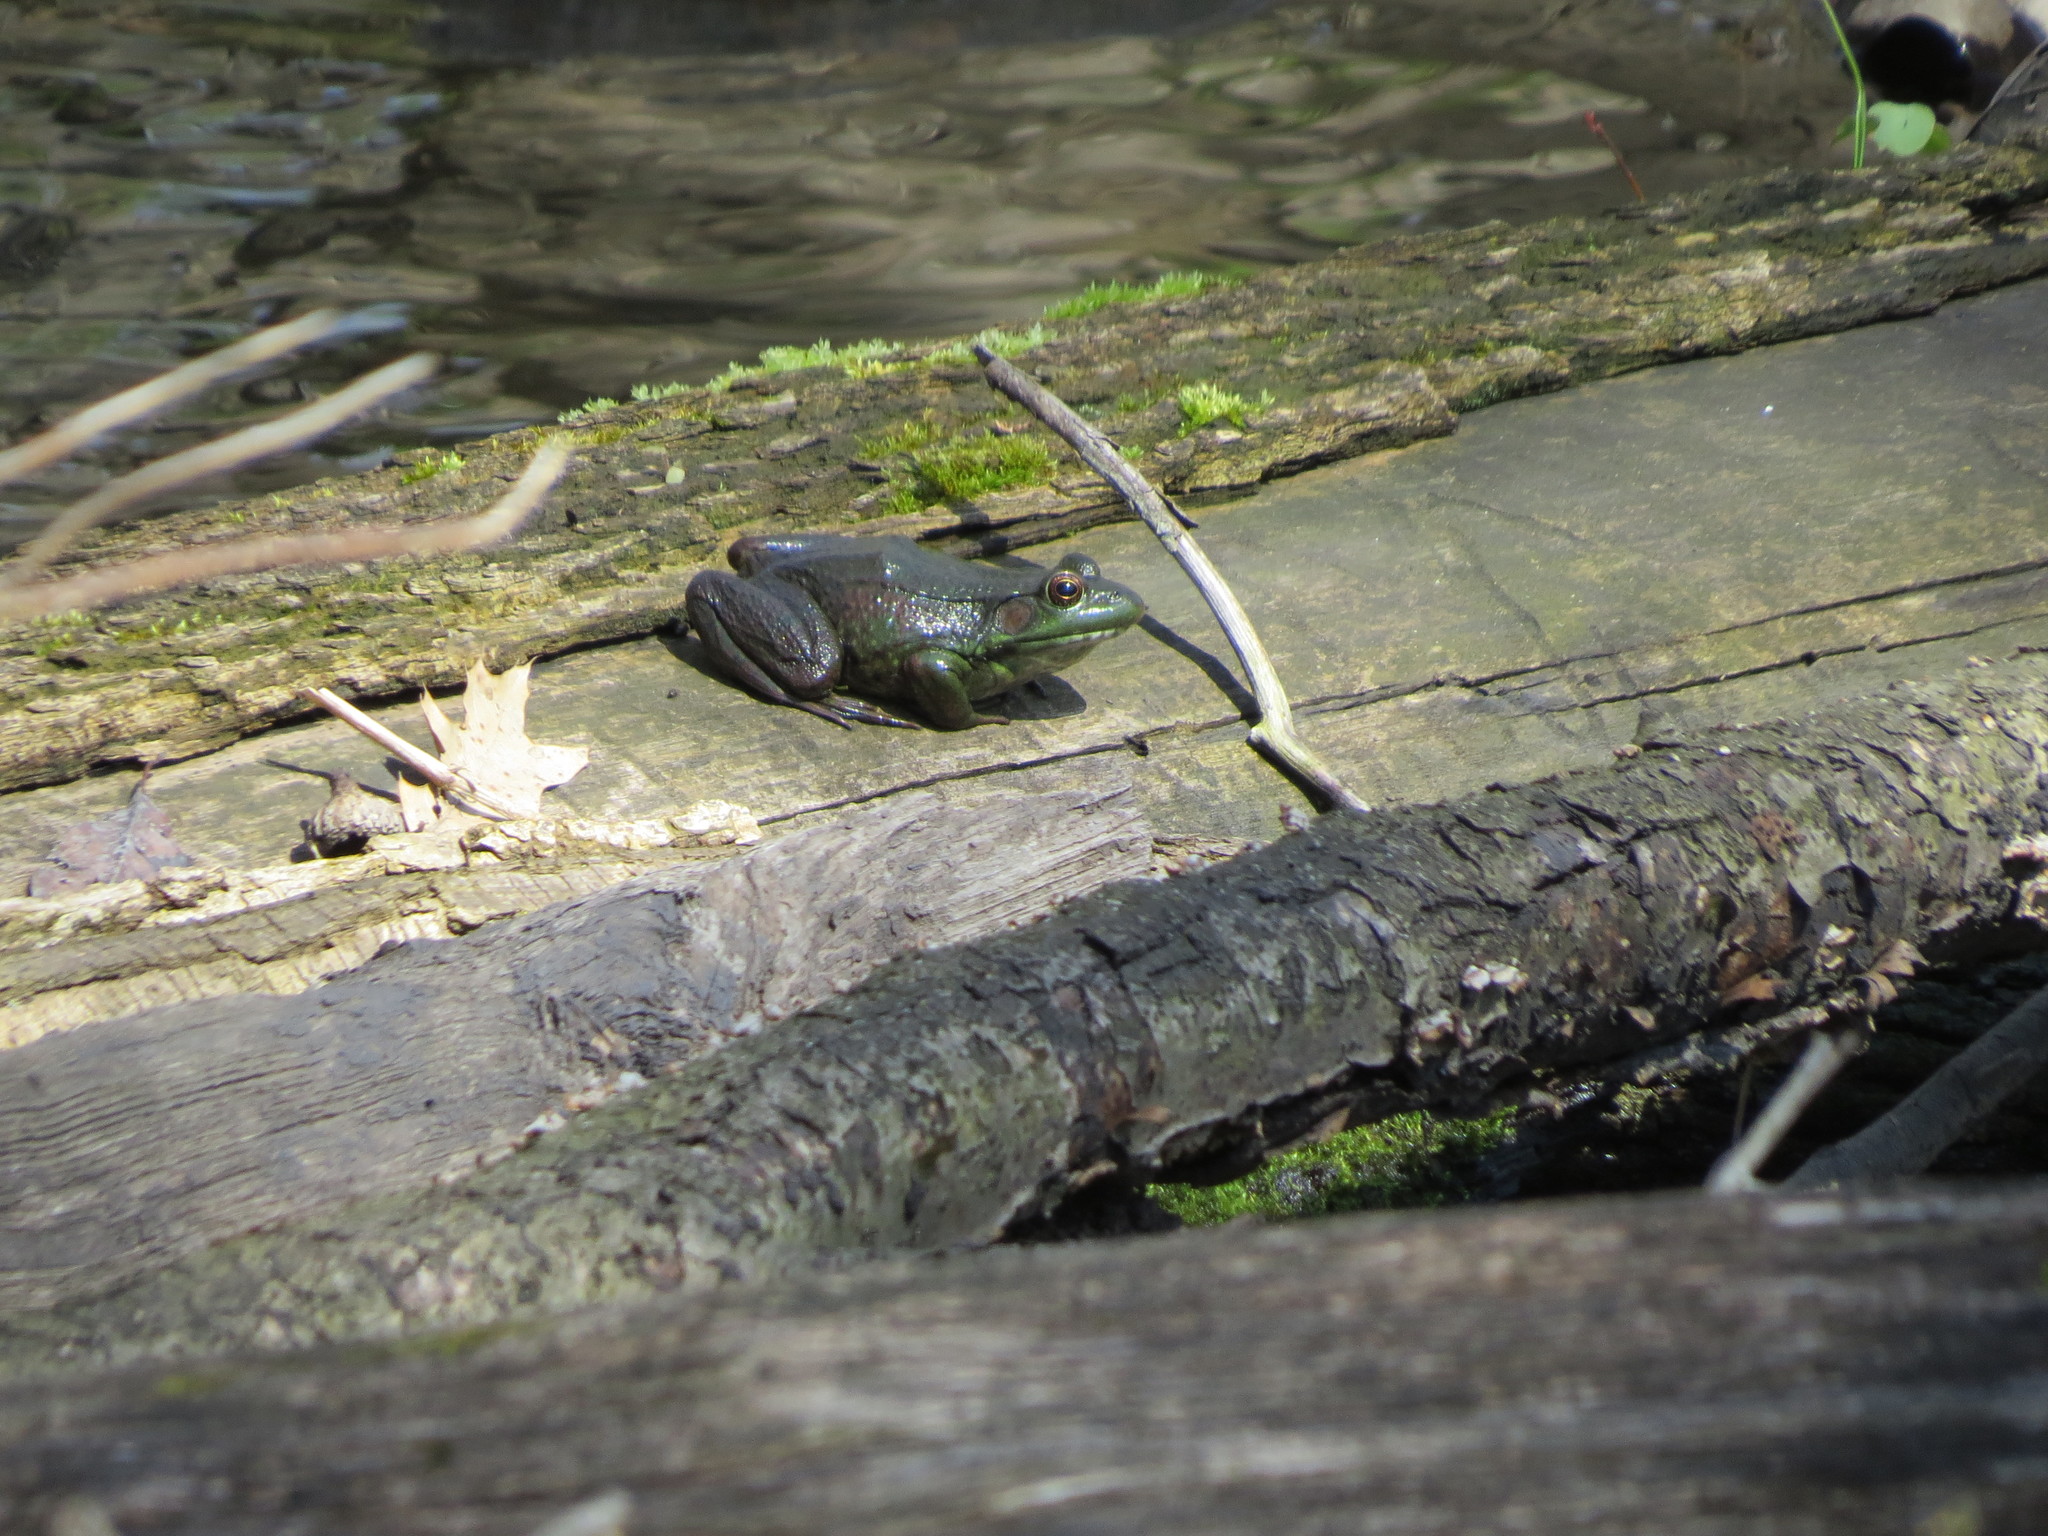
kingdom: Animalia
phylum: Chordata
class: Amphibia
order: Anura
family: Ranidae
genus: Lithobates
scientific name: Lithobates clamitans
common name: Green frog
